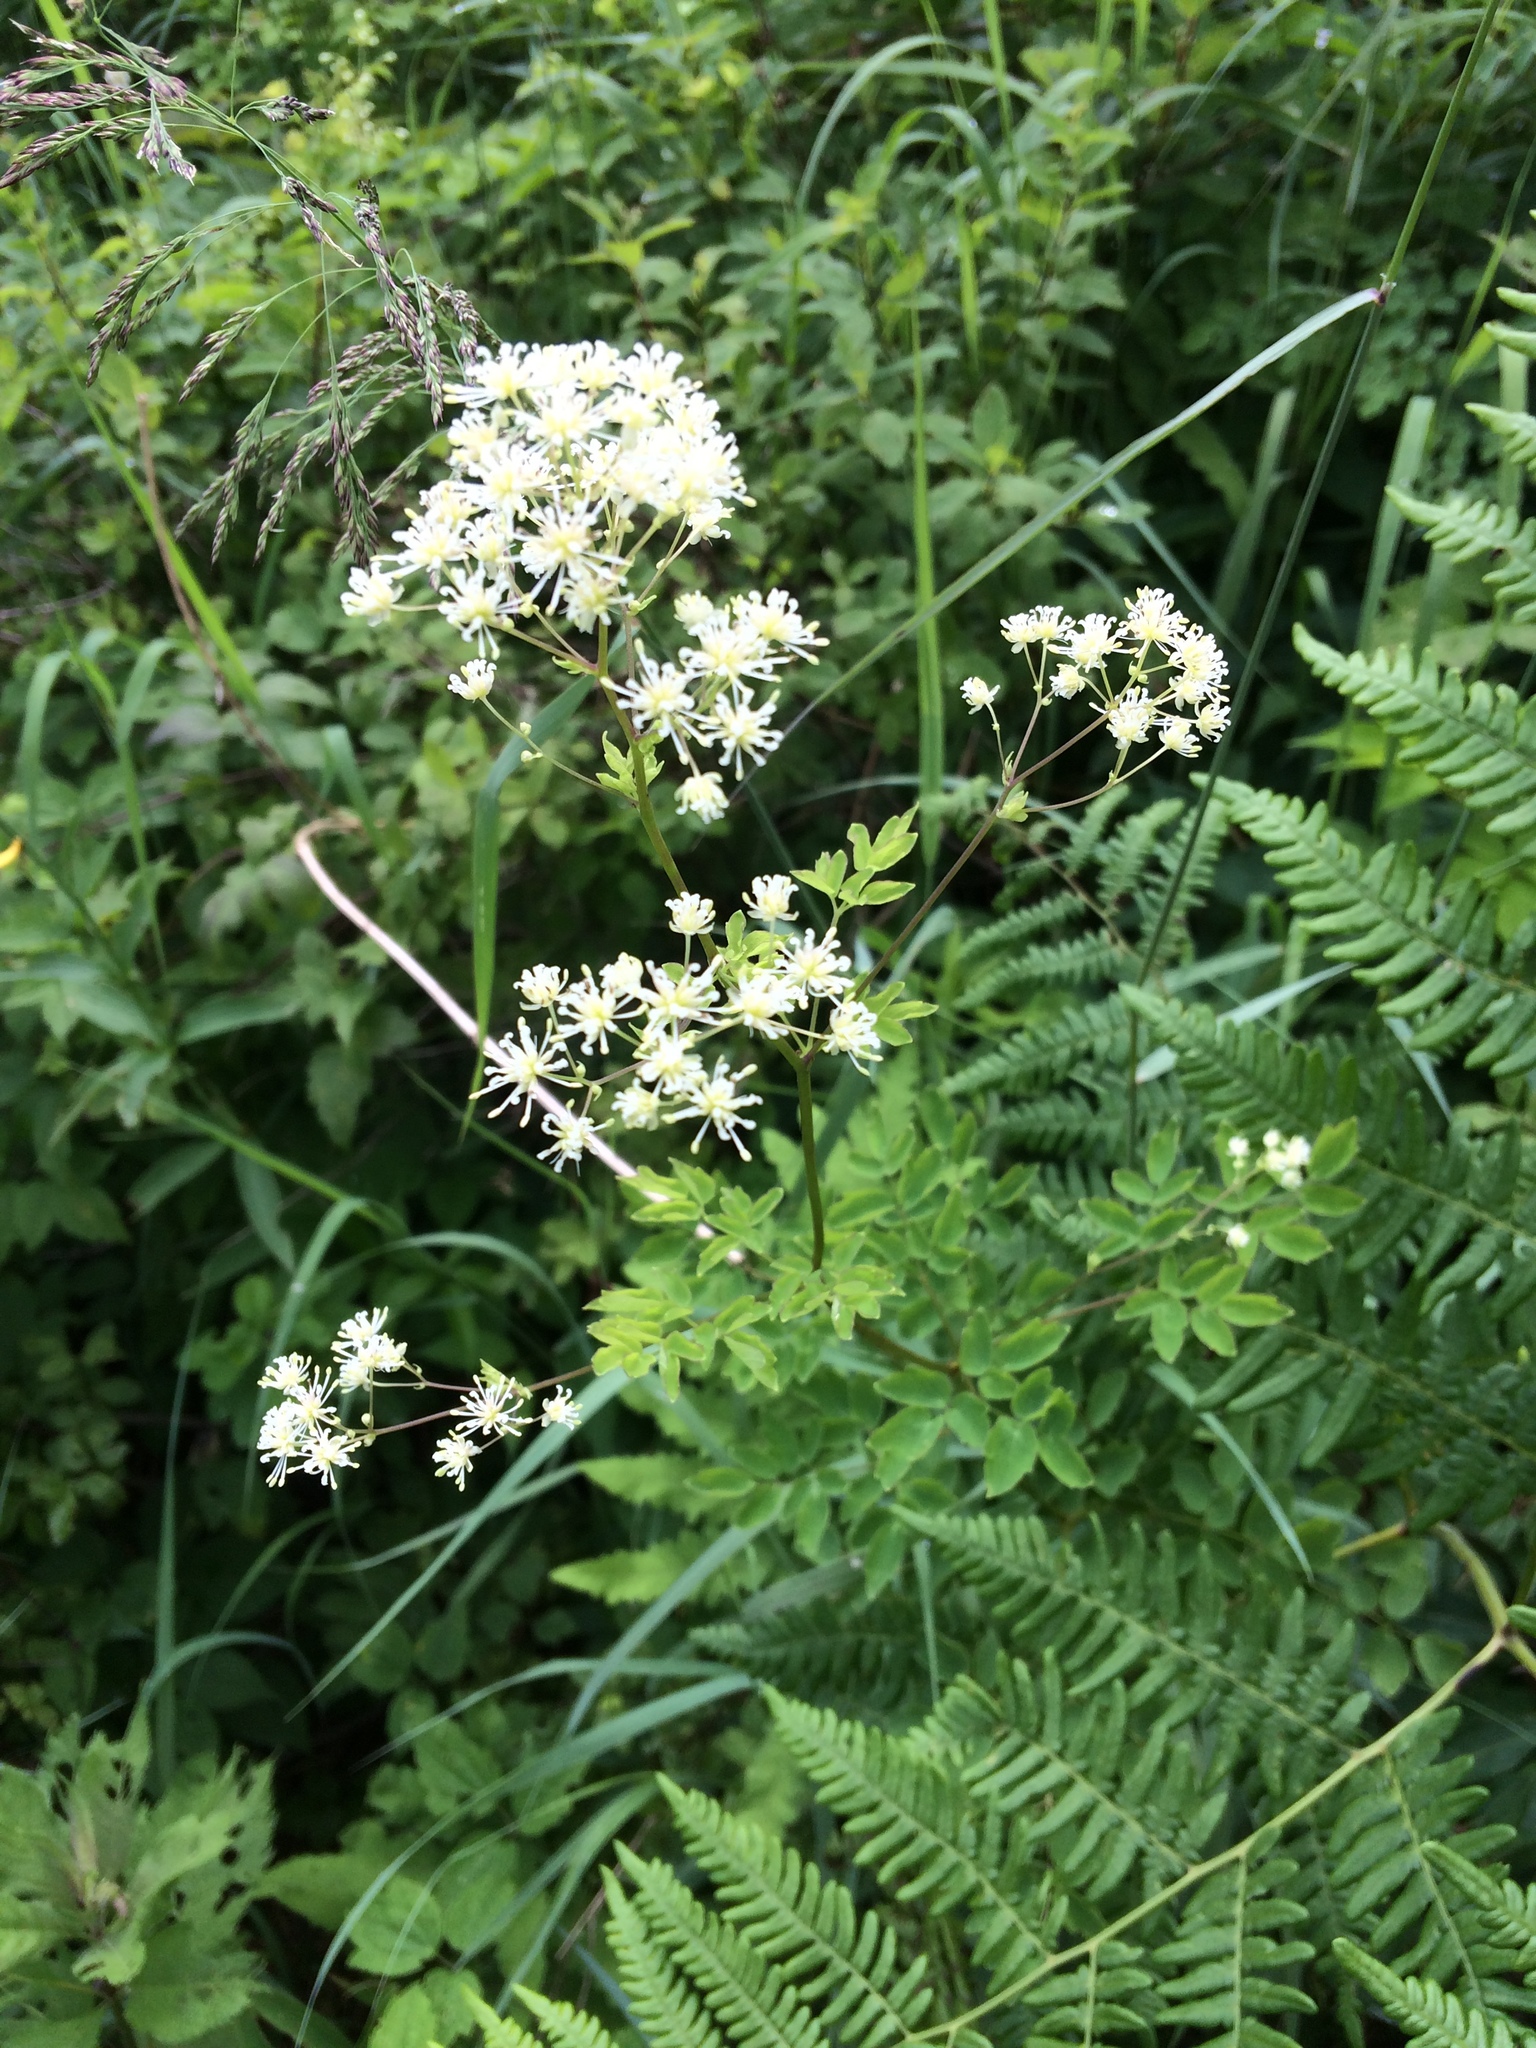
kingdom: Plantae
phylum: Tracheophyta
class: Magnoliopsida
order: Ranunculales
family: Ranunculaceae
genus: Thalictrum
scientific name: Thalictrum pubescens
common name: King-of-the-meadow
